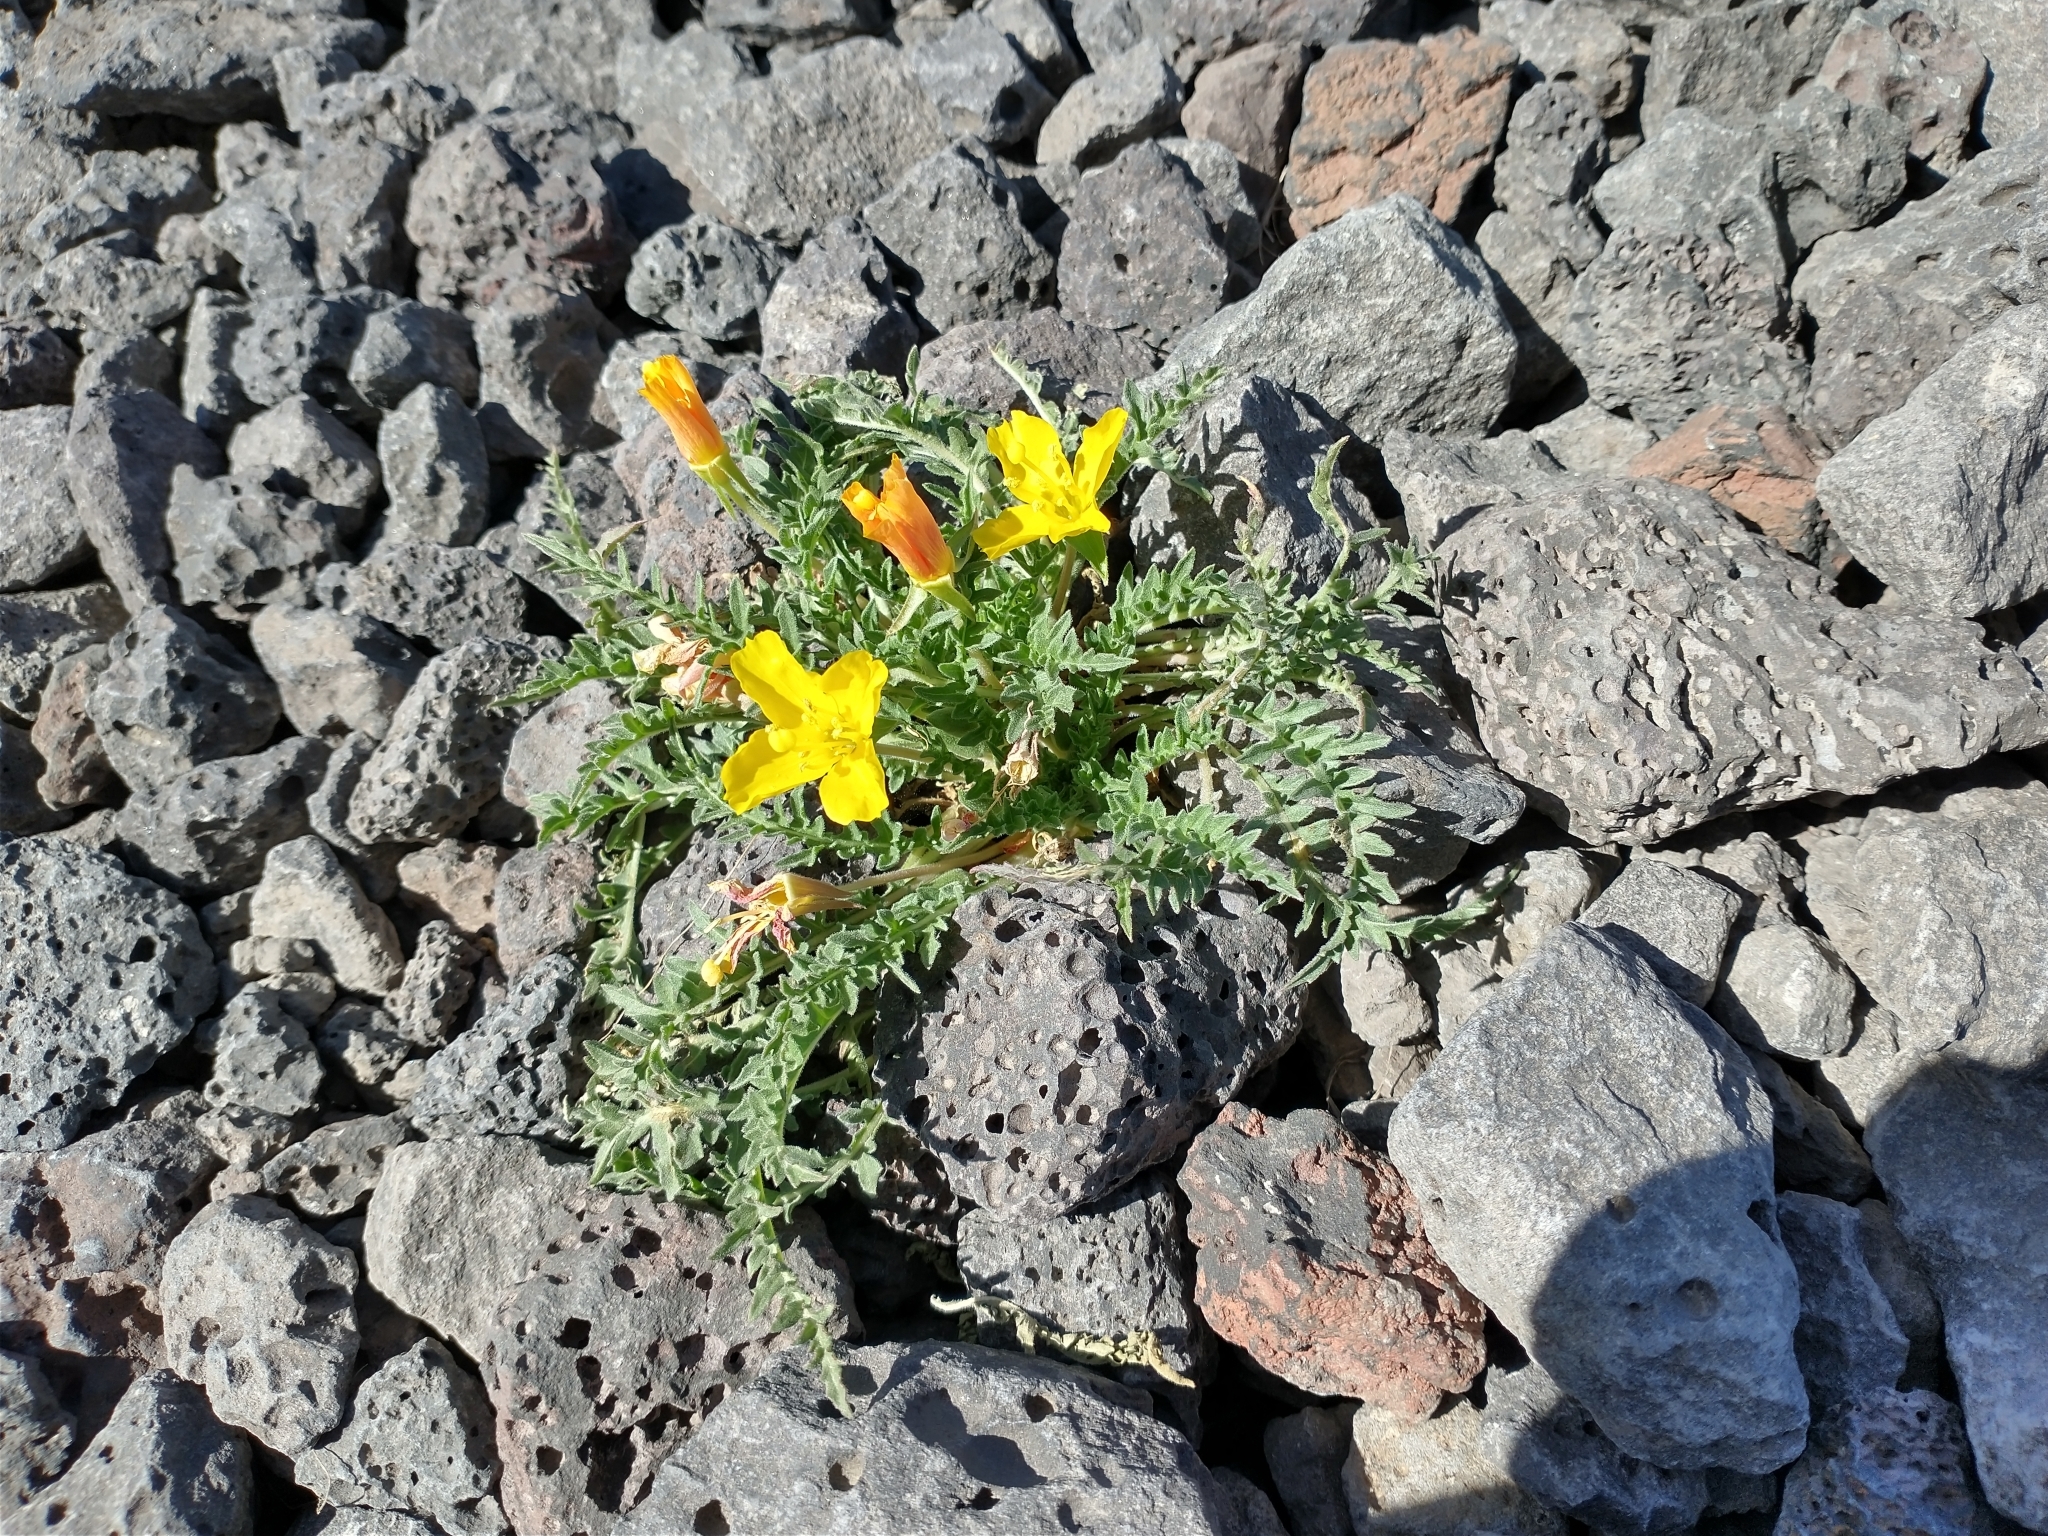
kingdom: Plantae
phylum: Tracheophyta
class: Magnoliopsida
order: Myrtales
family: Onagraceae
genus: Taraxia
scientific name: Taraxia tanacetifolia
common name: Tansyleaf evening primrose
